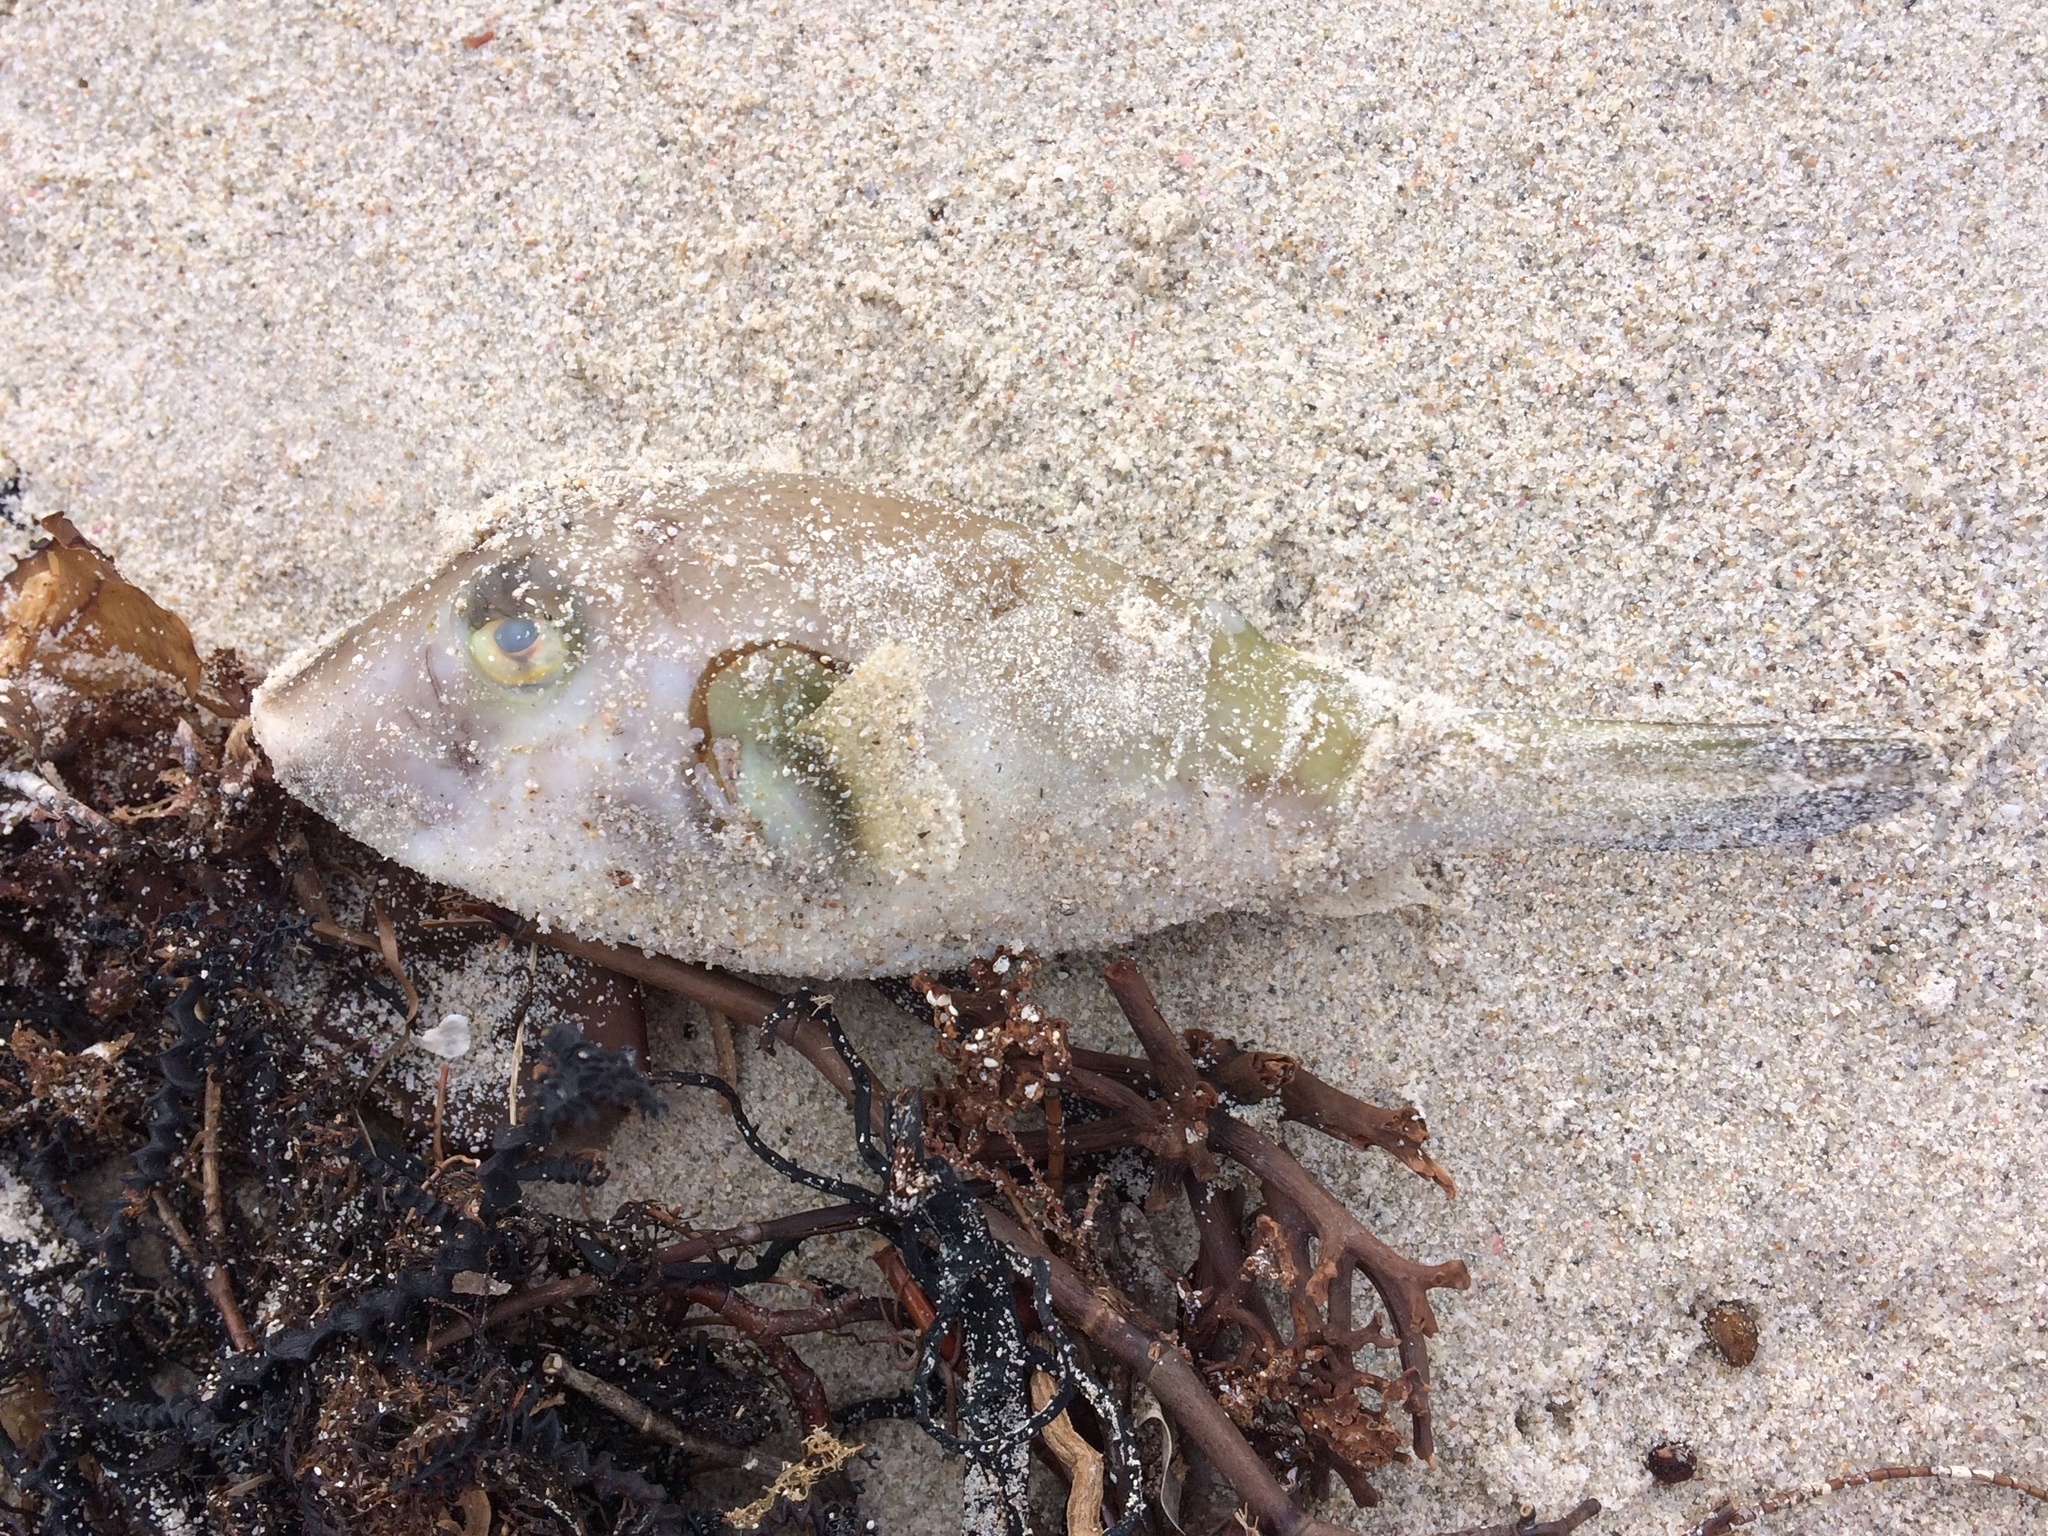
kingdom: Animalia
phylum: Chordata
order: Tetraodontiformes
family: Tetraodontidae
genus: Omegophora
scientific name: Omegophora armilla
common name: Ringed pufferfish
